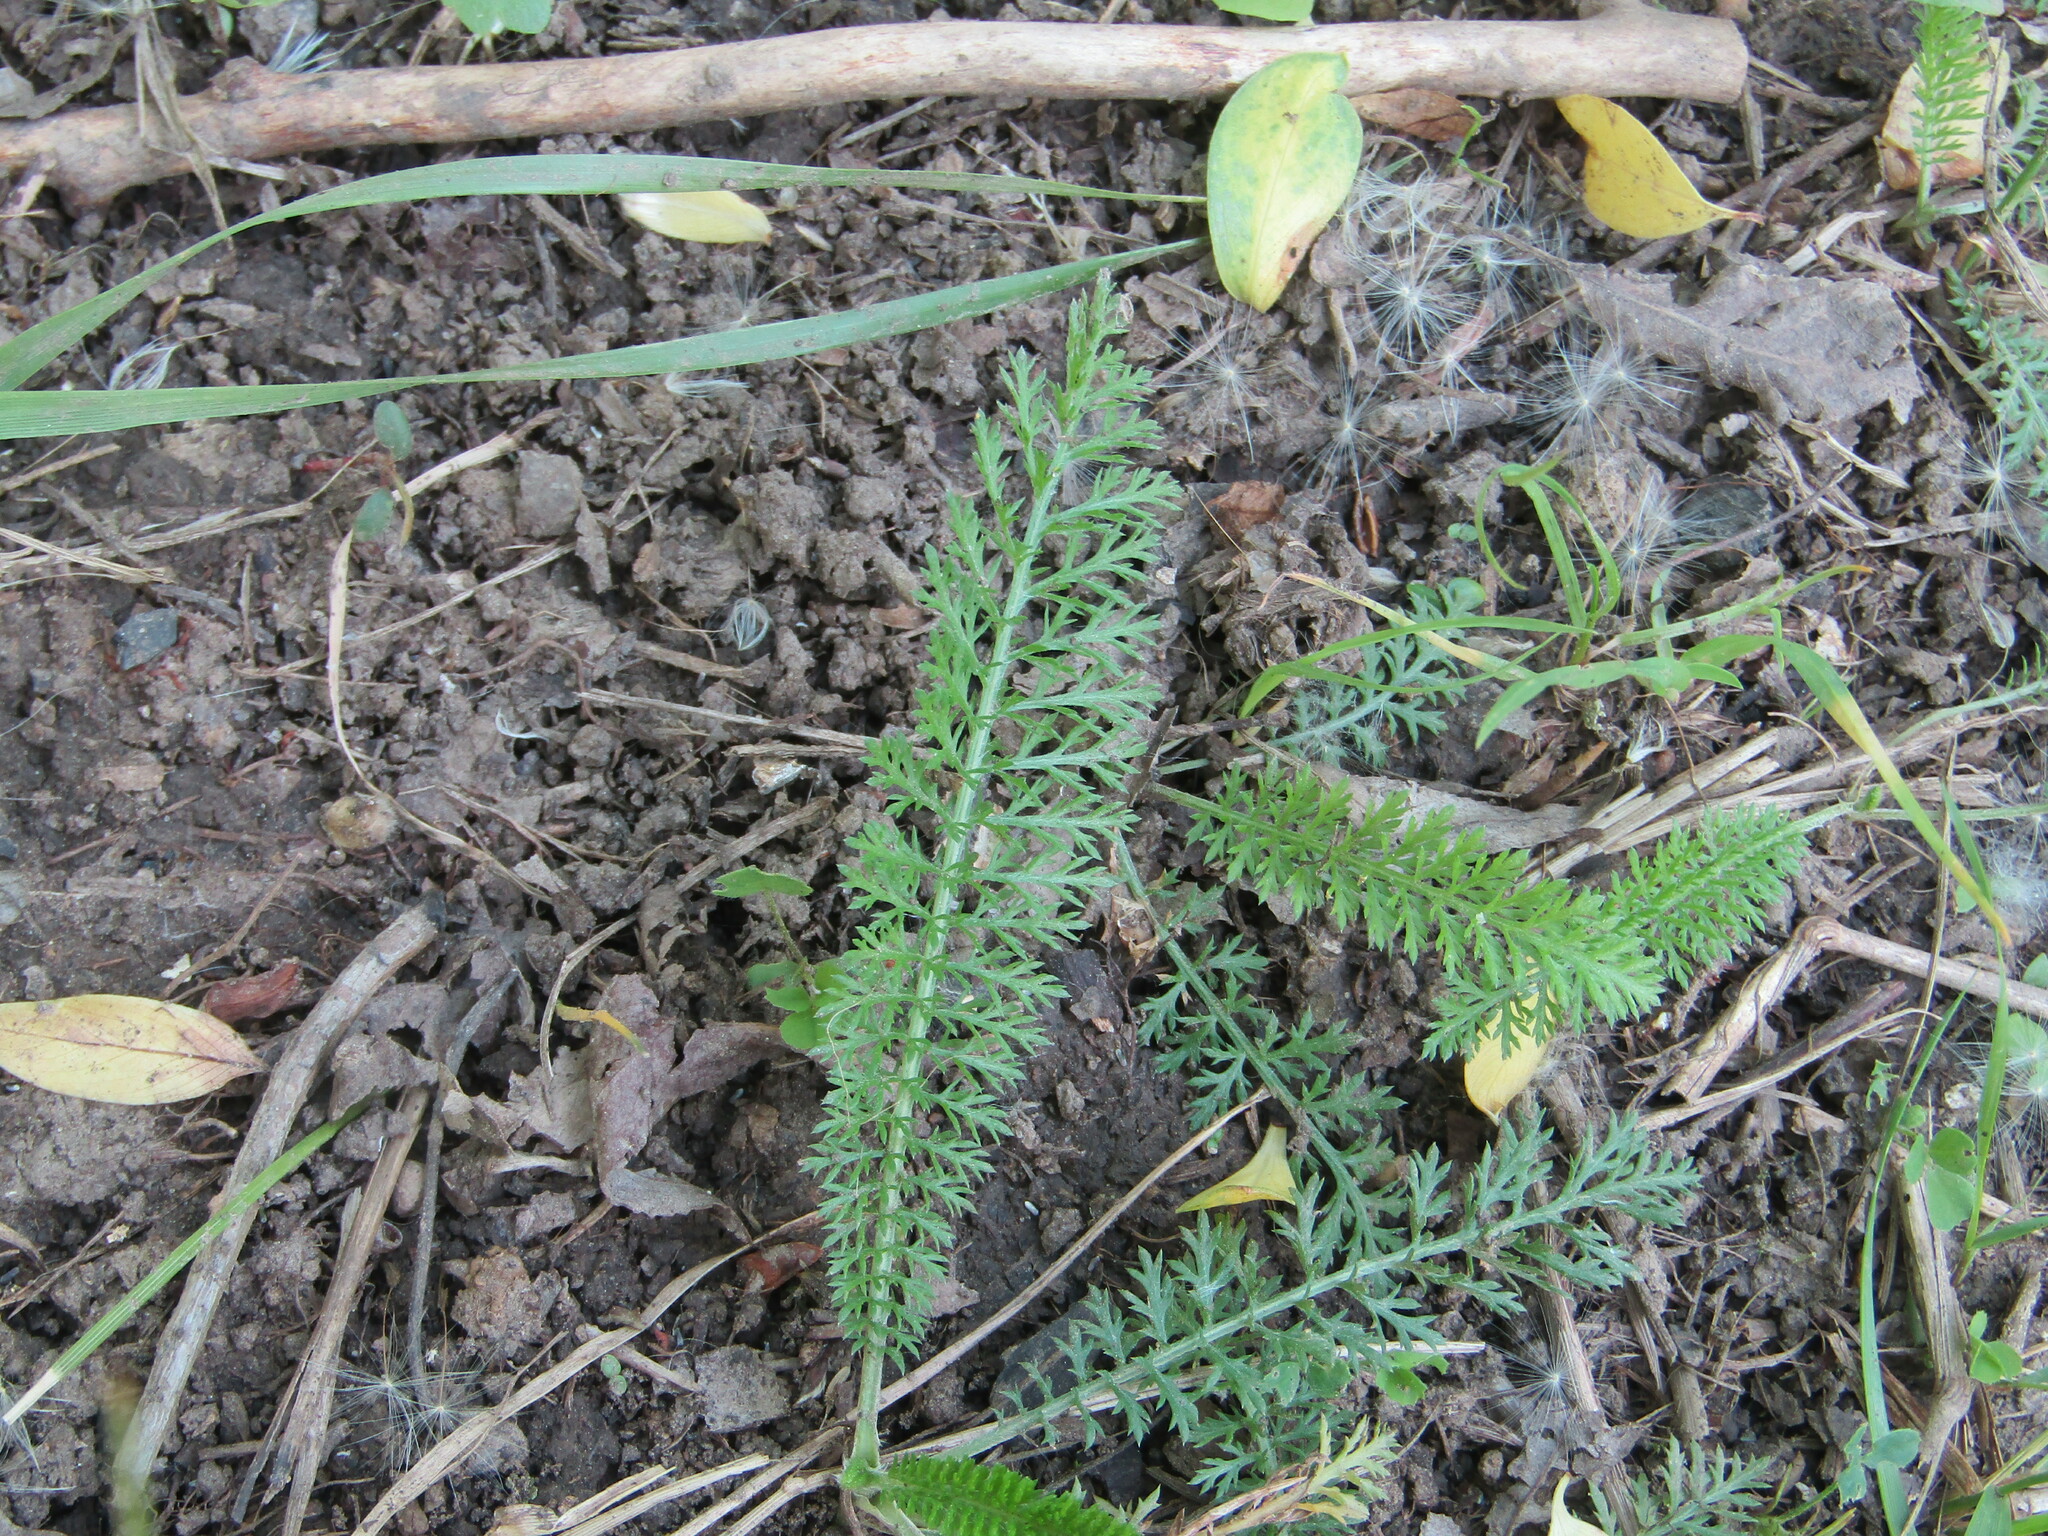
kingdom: Plantae
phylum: Tracheophyta
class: Magnoliopsida
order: Asterales
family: Asteraceae
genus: Achillea
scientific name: Achillea millefolium
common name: Yarrow
